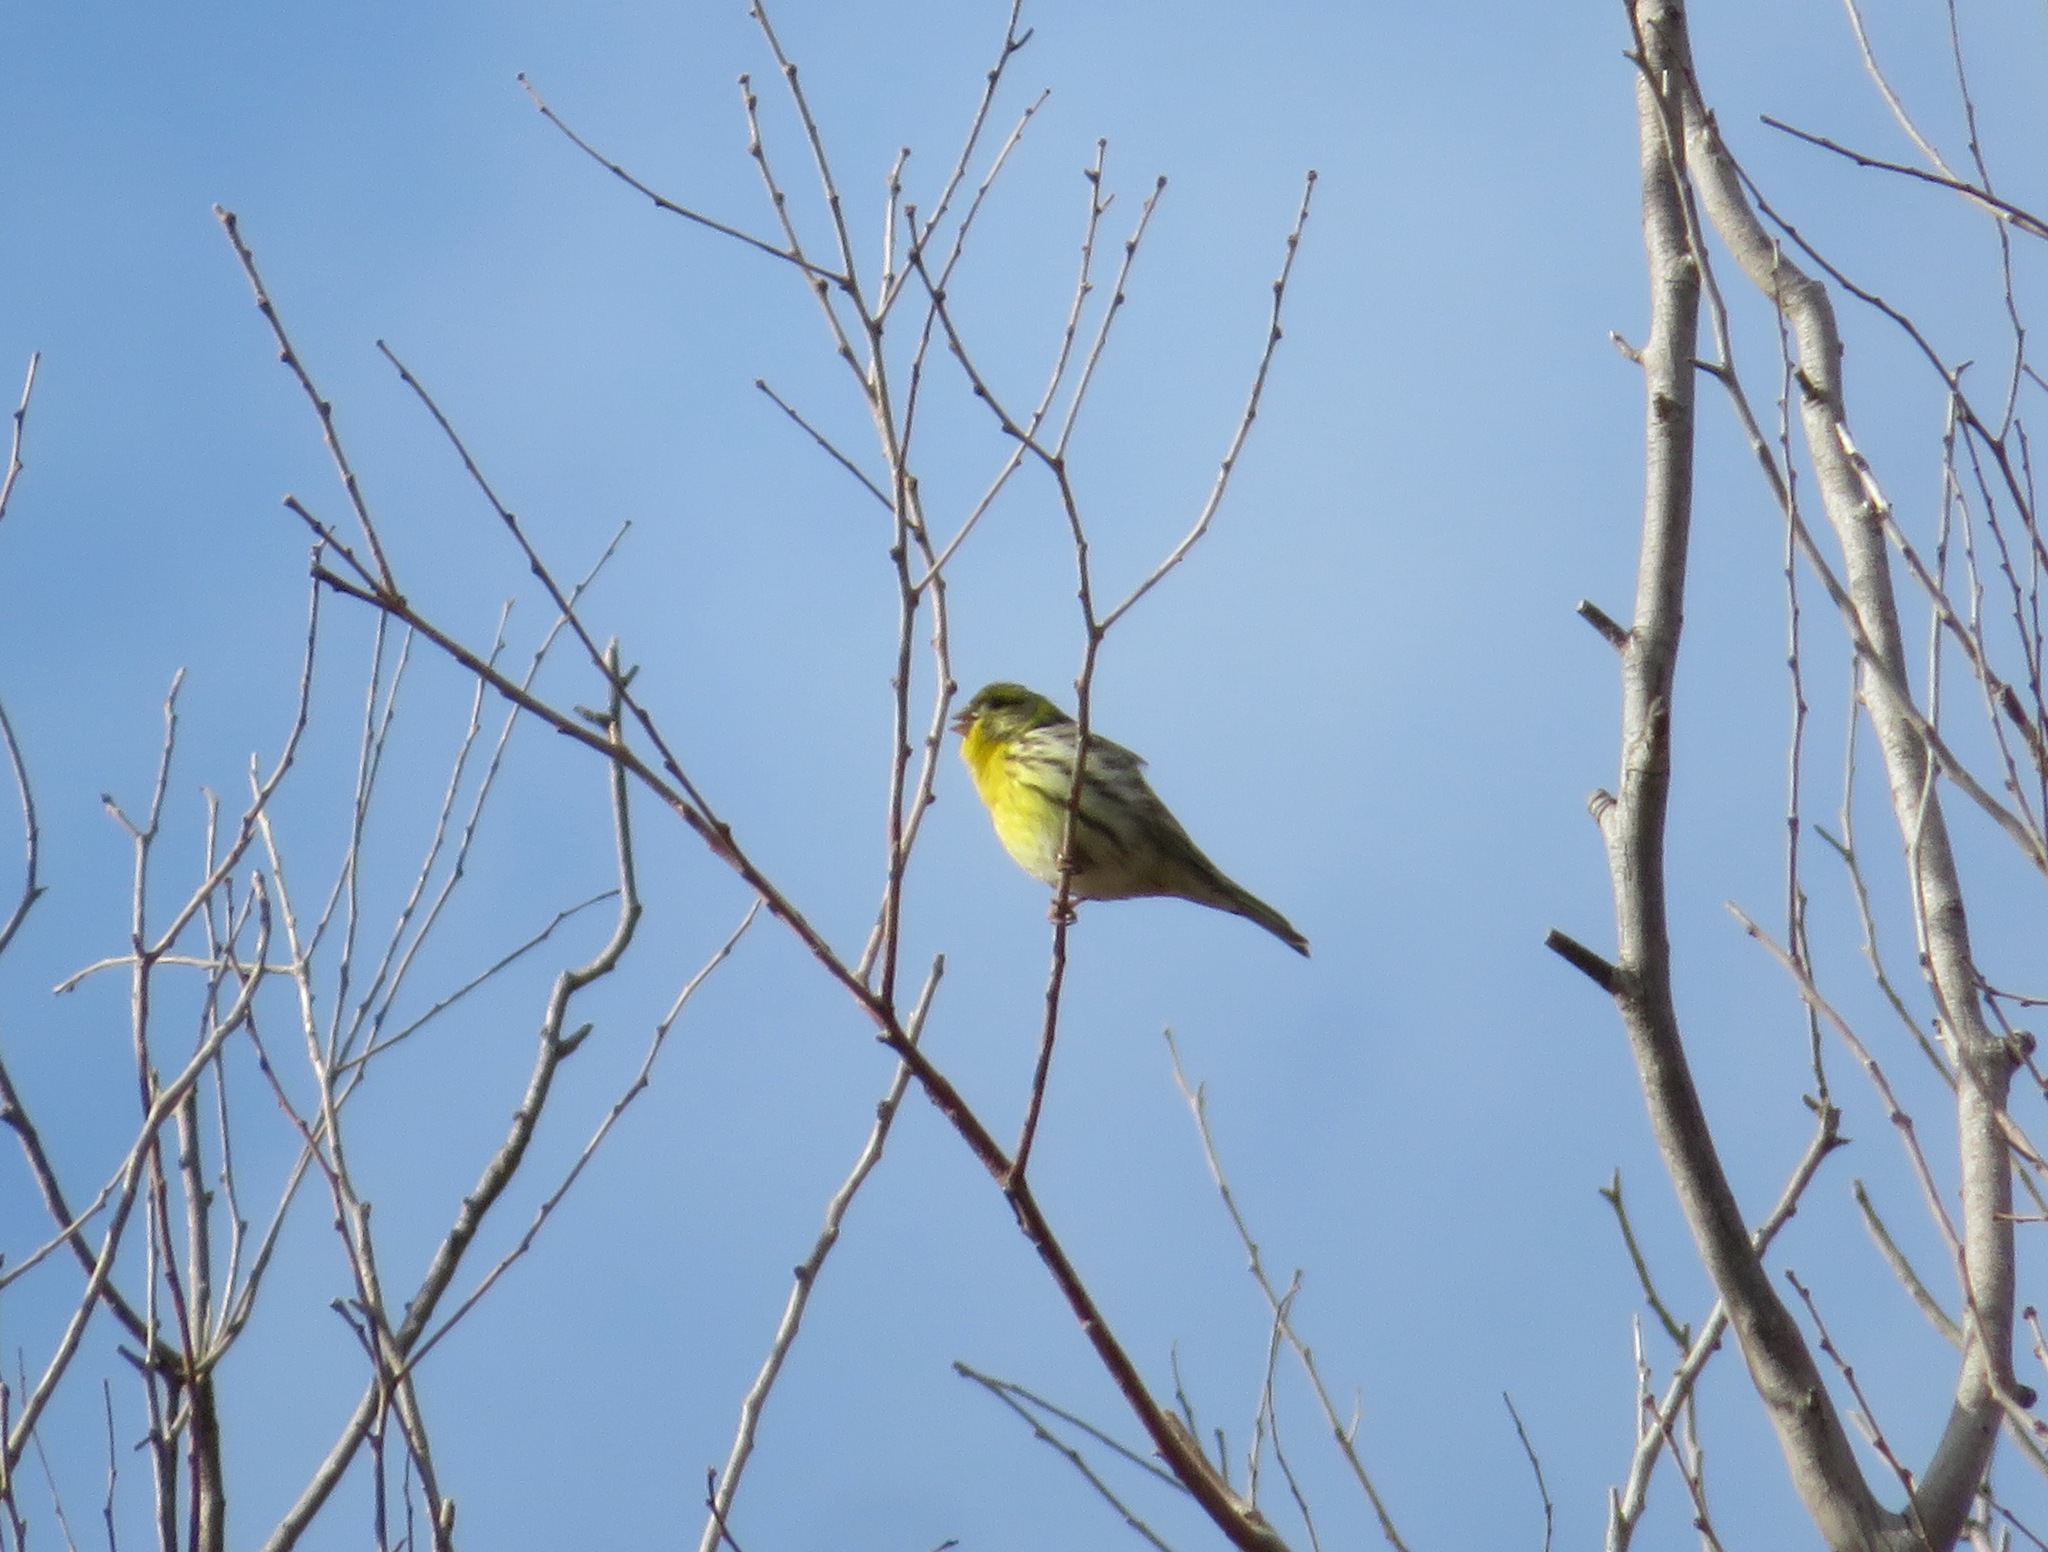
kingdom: Animalia
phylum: Chordata
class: Aves
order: Passeriformes
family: Fringillidae
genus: Serinus
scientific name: Serinus serinus
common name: European serin
